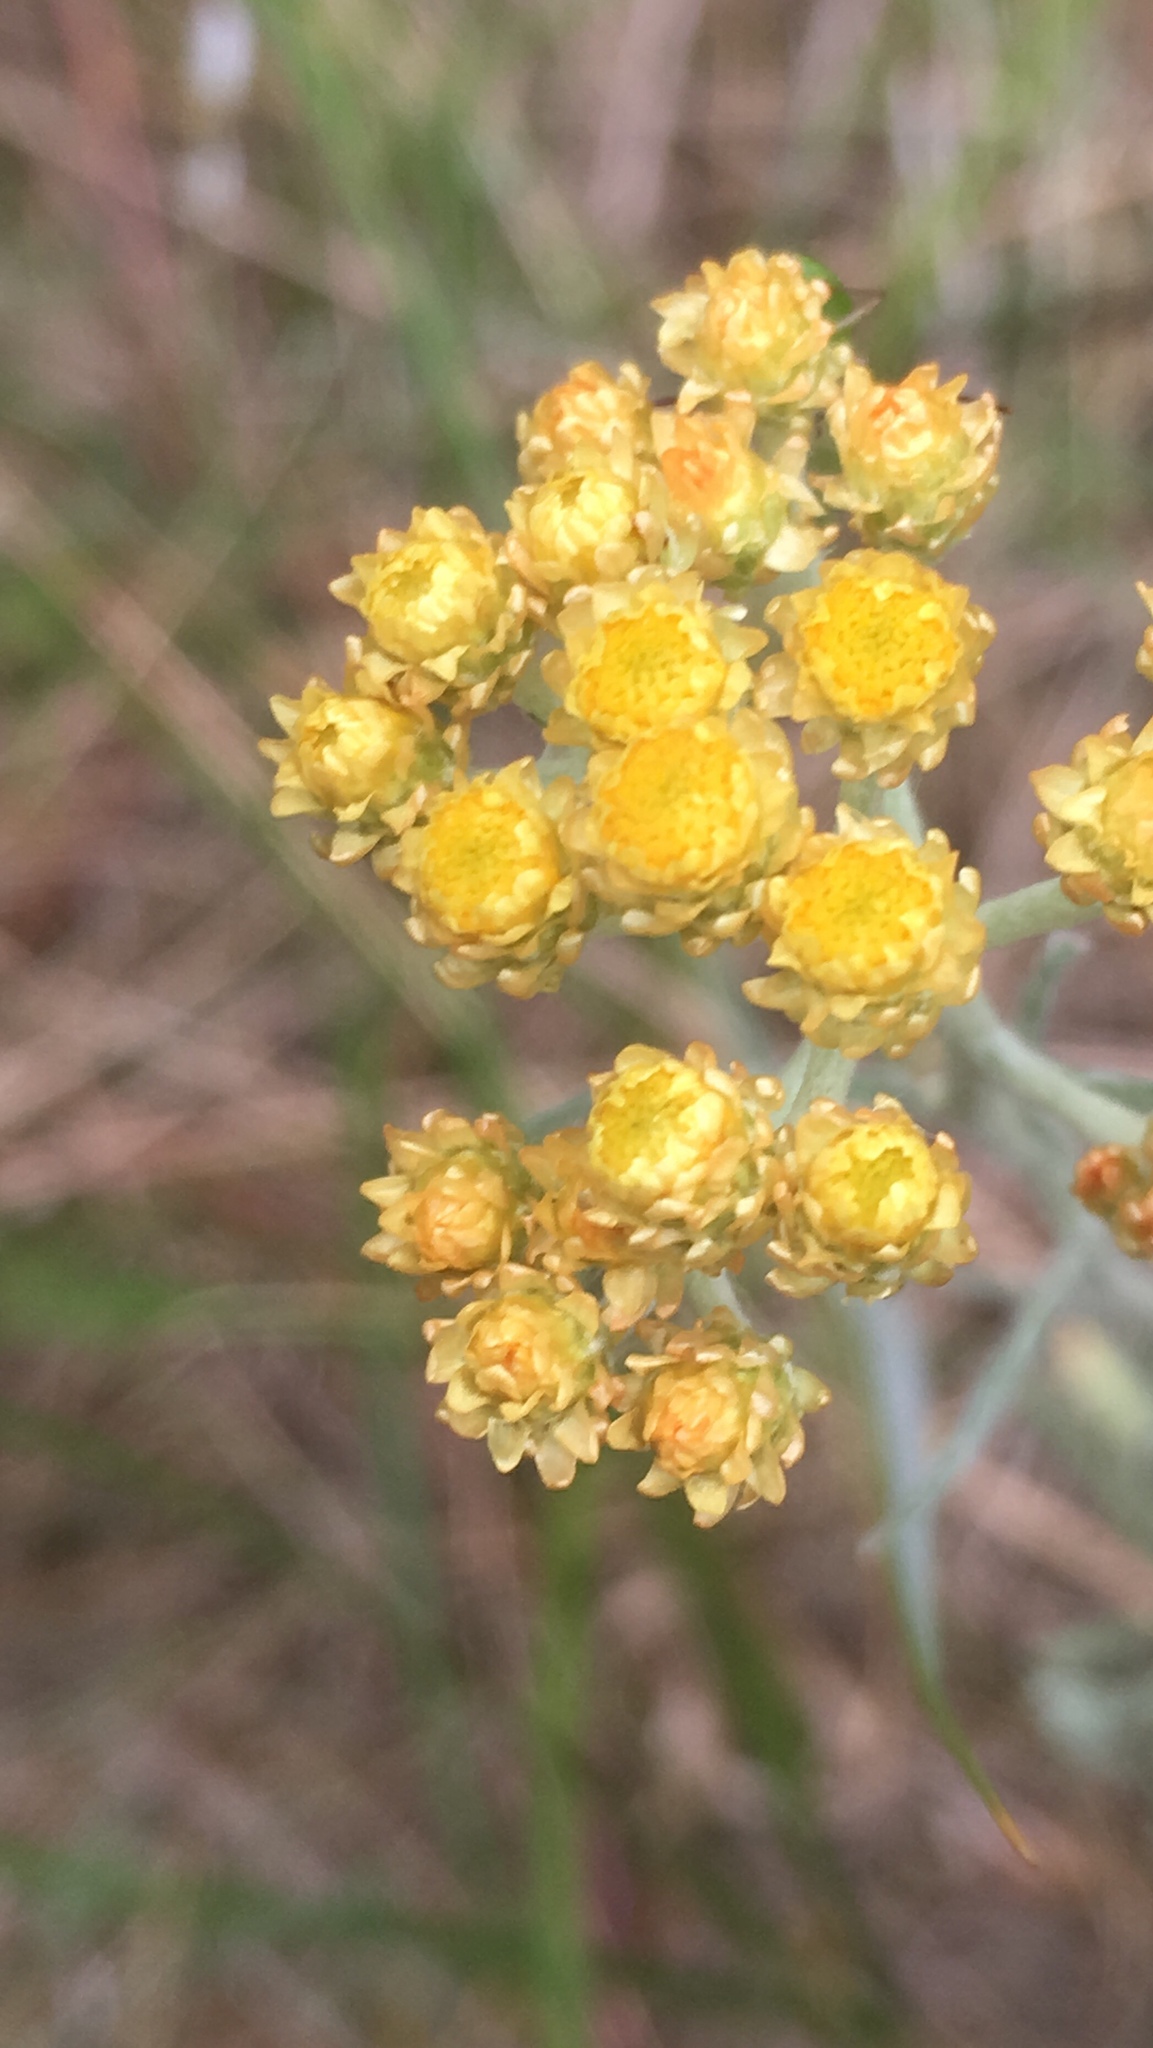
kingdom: Plantae
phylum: Tracheophyta
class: Magnoliopsida
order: Asterales
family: Asteraceae
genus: Helichrysum
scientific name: Helichrysum arenarium
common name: Strawflower
